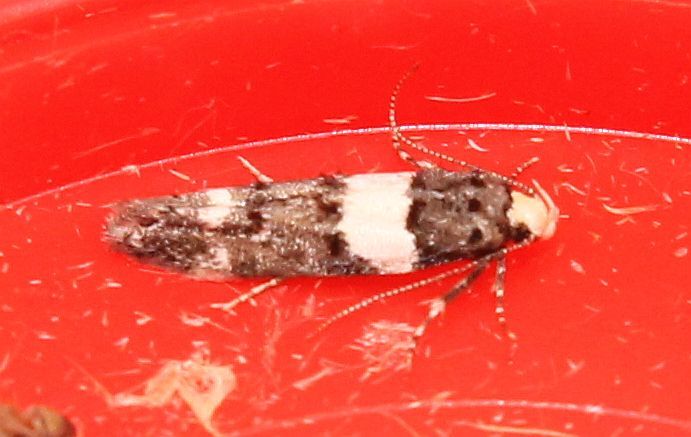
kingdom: Animalia
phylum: Arthropoda
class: Insecta
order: Lepidoptera
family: Gelechiidae
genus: Recurvaria
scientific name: Recurvaria leucatella
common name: White-barred groundling
